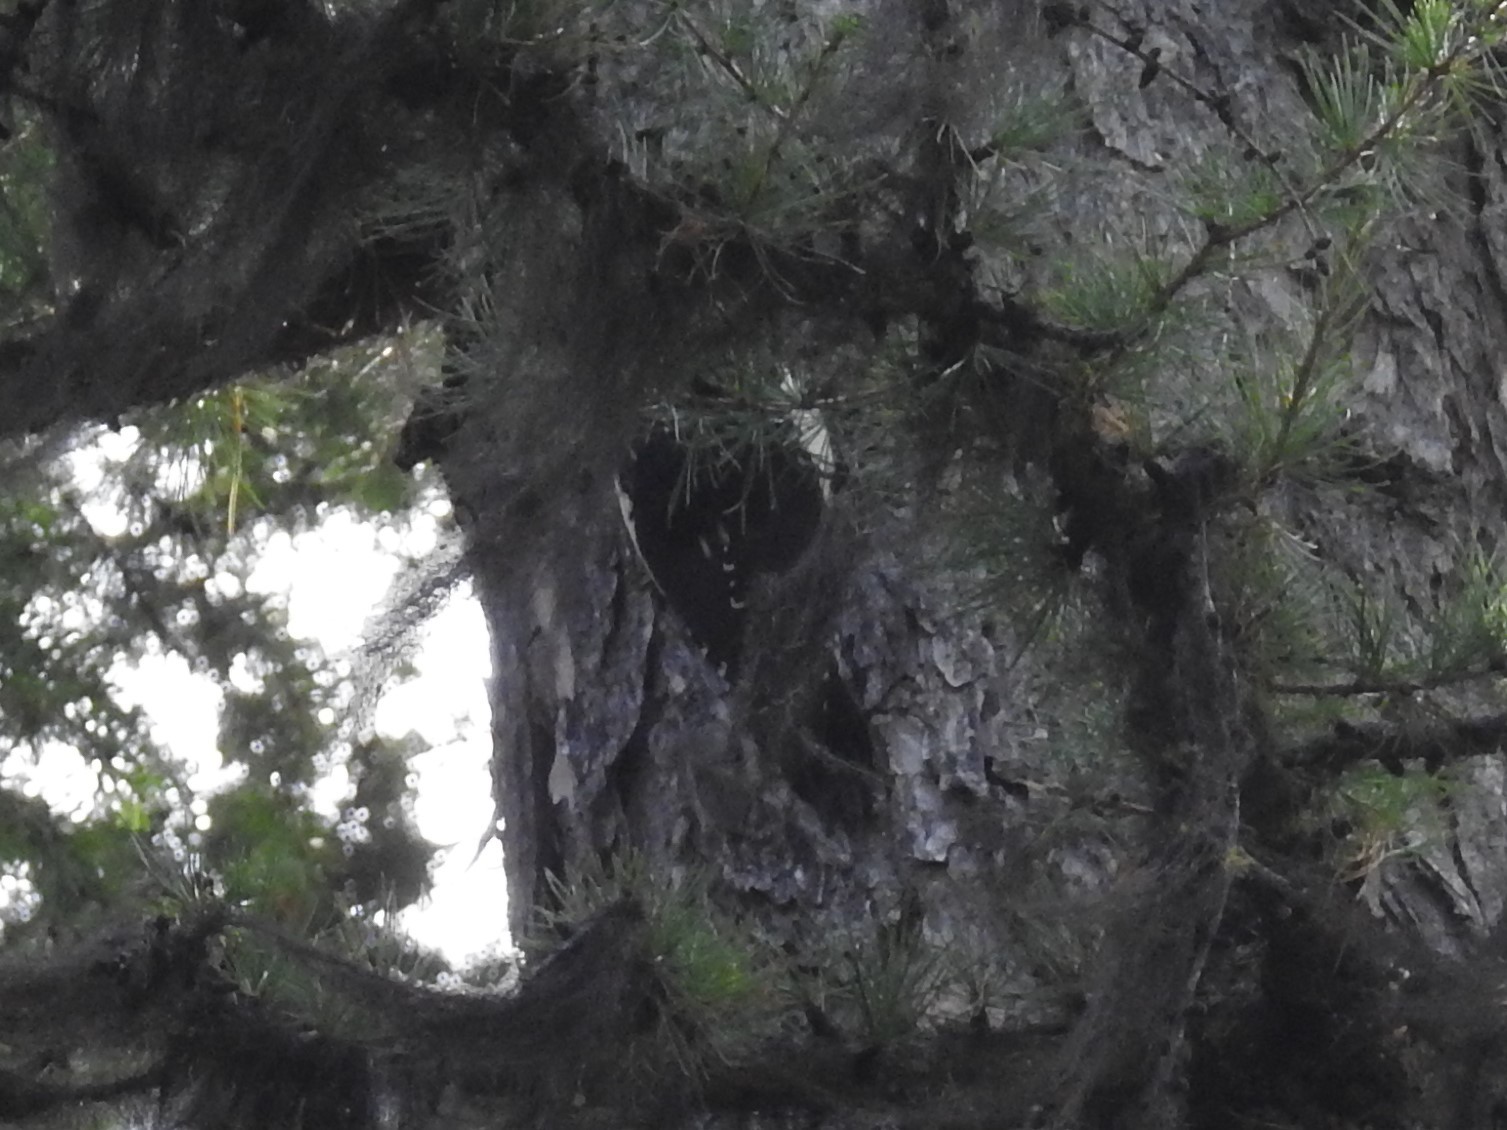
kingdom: Animalia
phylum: Chordata
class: Aves
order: Piciformes
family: Picidae
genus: Sphyrapicus
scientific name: Sphyrapicus nuchalis
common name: Red-naped sapsucker
